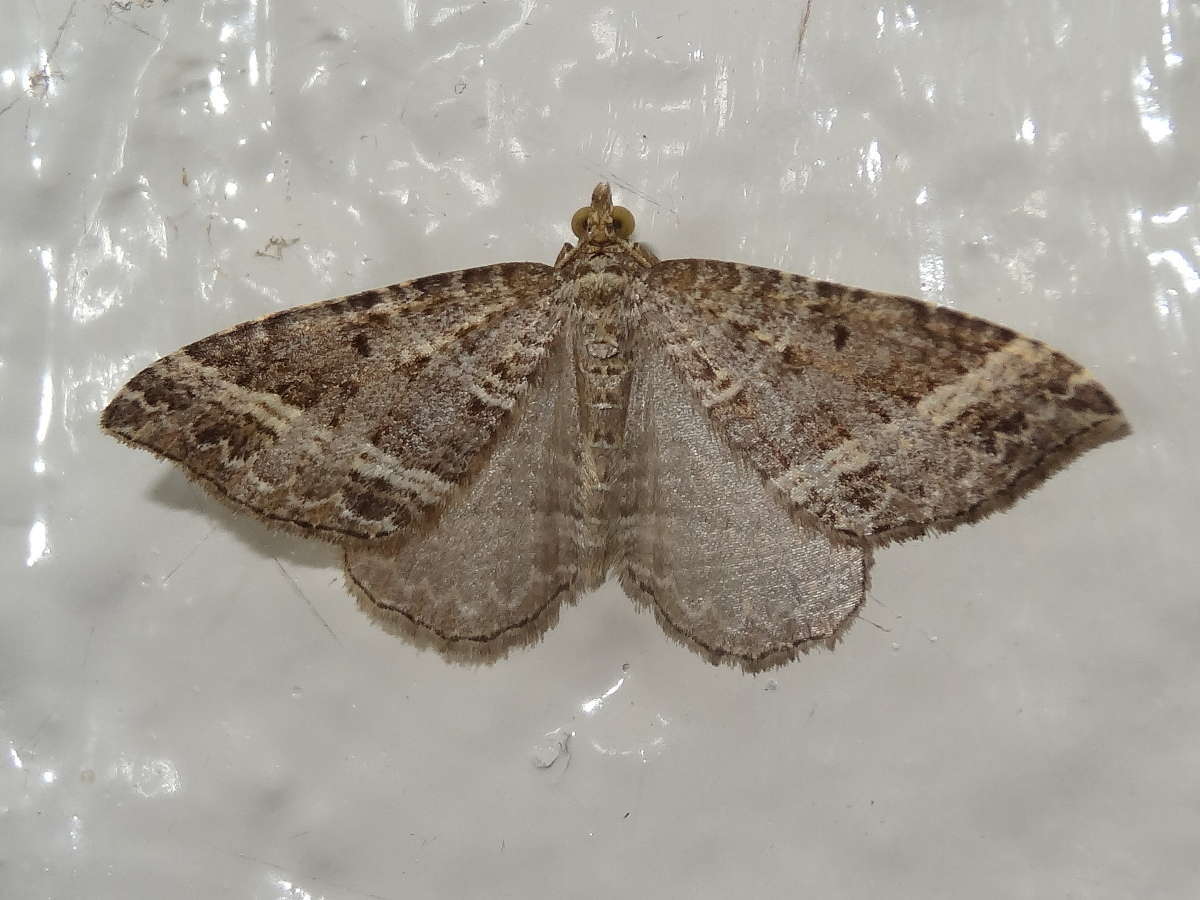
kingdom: Animalia
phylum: Arthropoda
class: Insecta
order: Lepidoptera
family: Geometridae
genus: Chrysolarentia
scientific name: Chrysolarentia subrectaria
